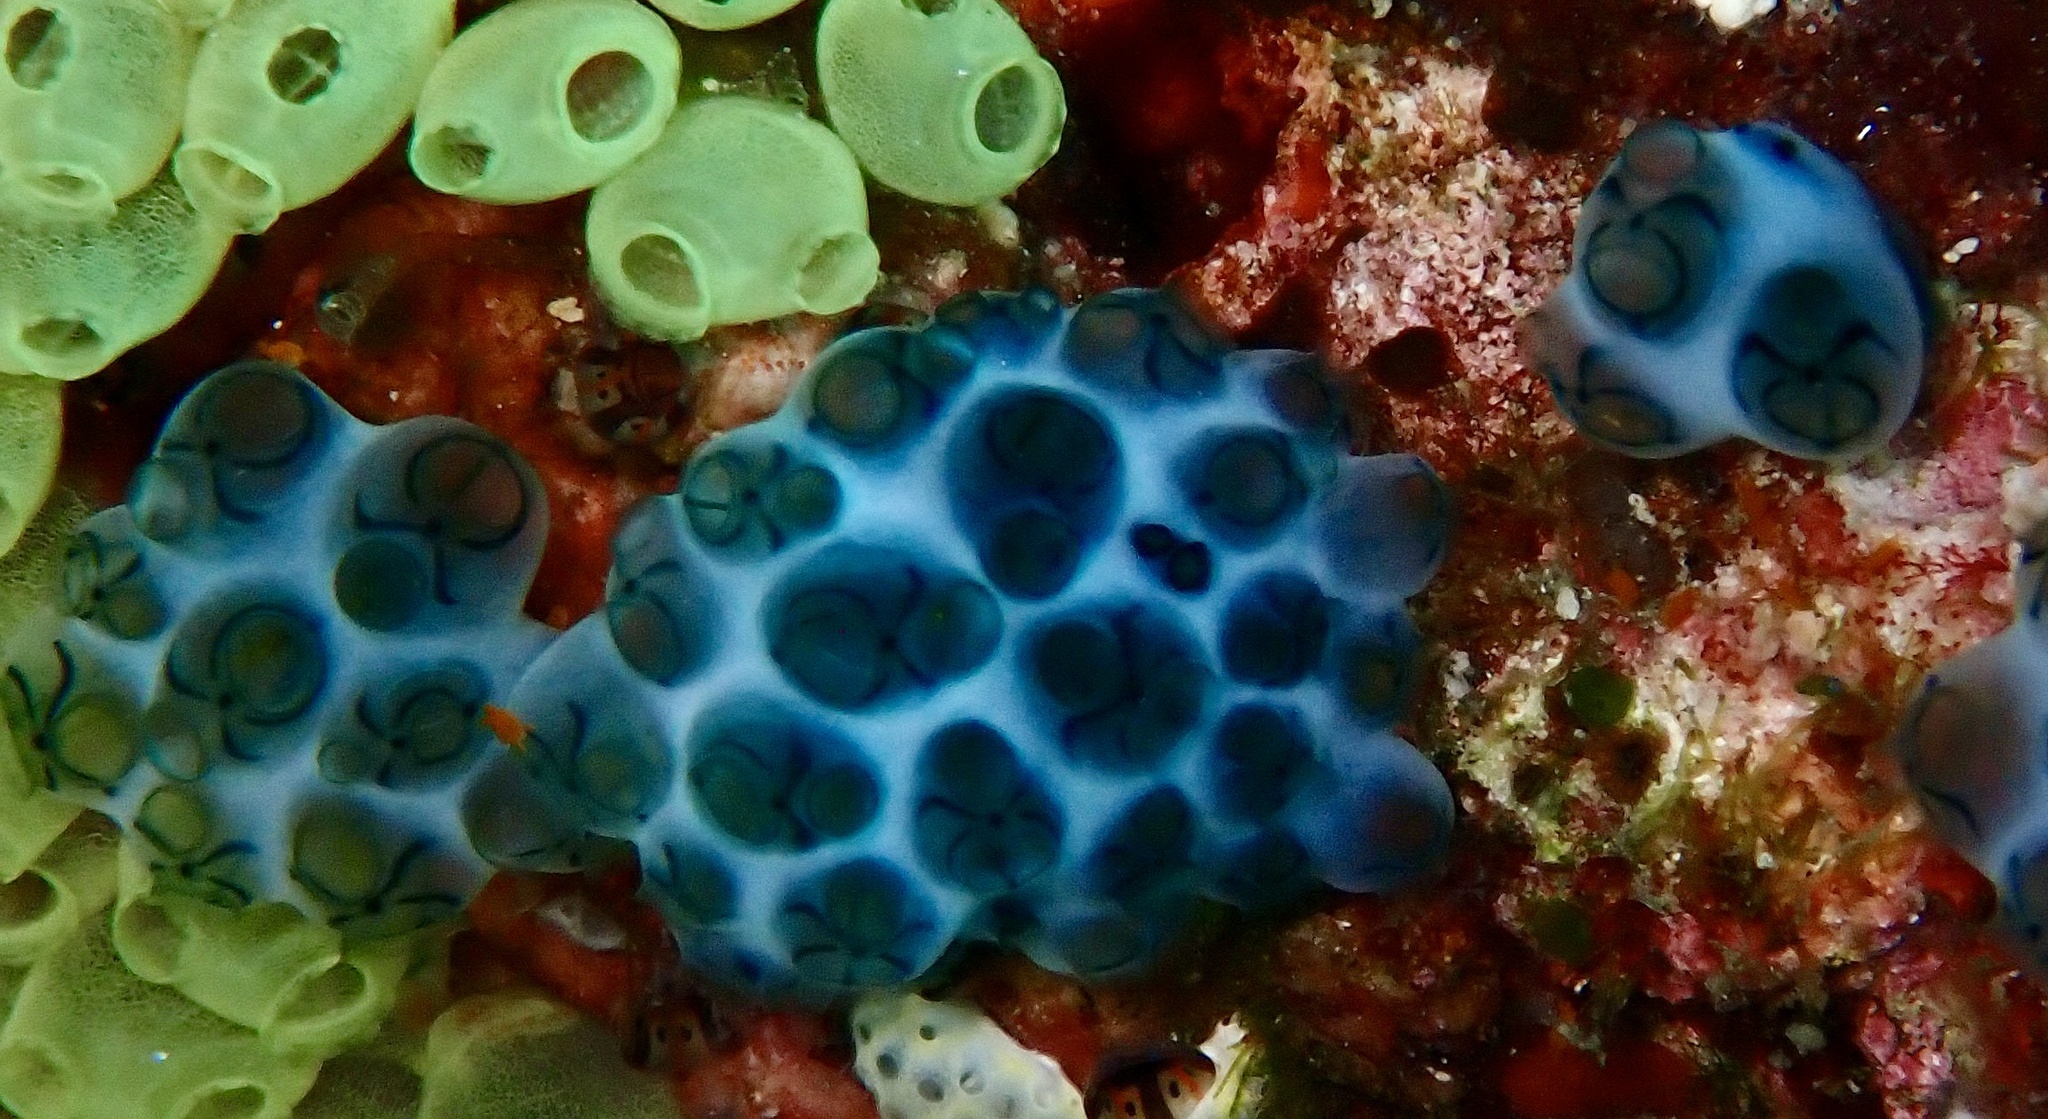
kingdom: Animalia
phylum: Chordata
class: Ascidiacea
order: Aplousobranchia
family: Holozoidae
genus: Sigillina
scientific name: Sigillina signifera
